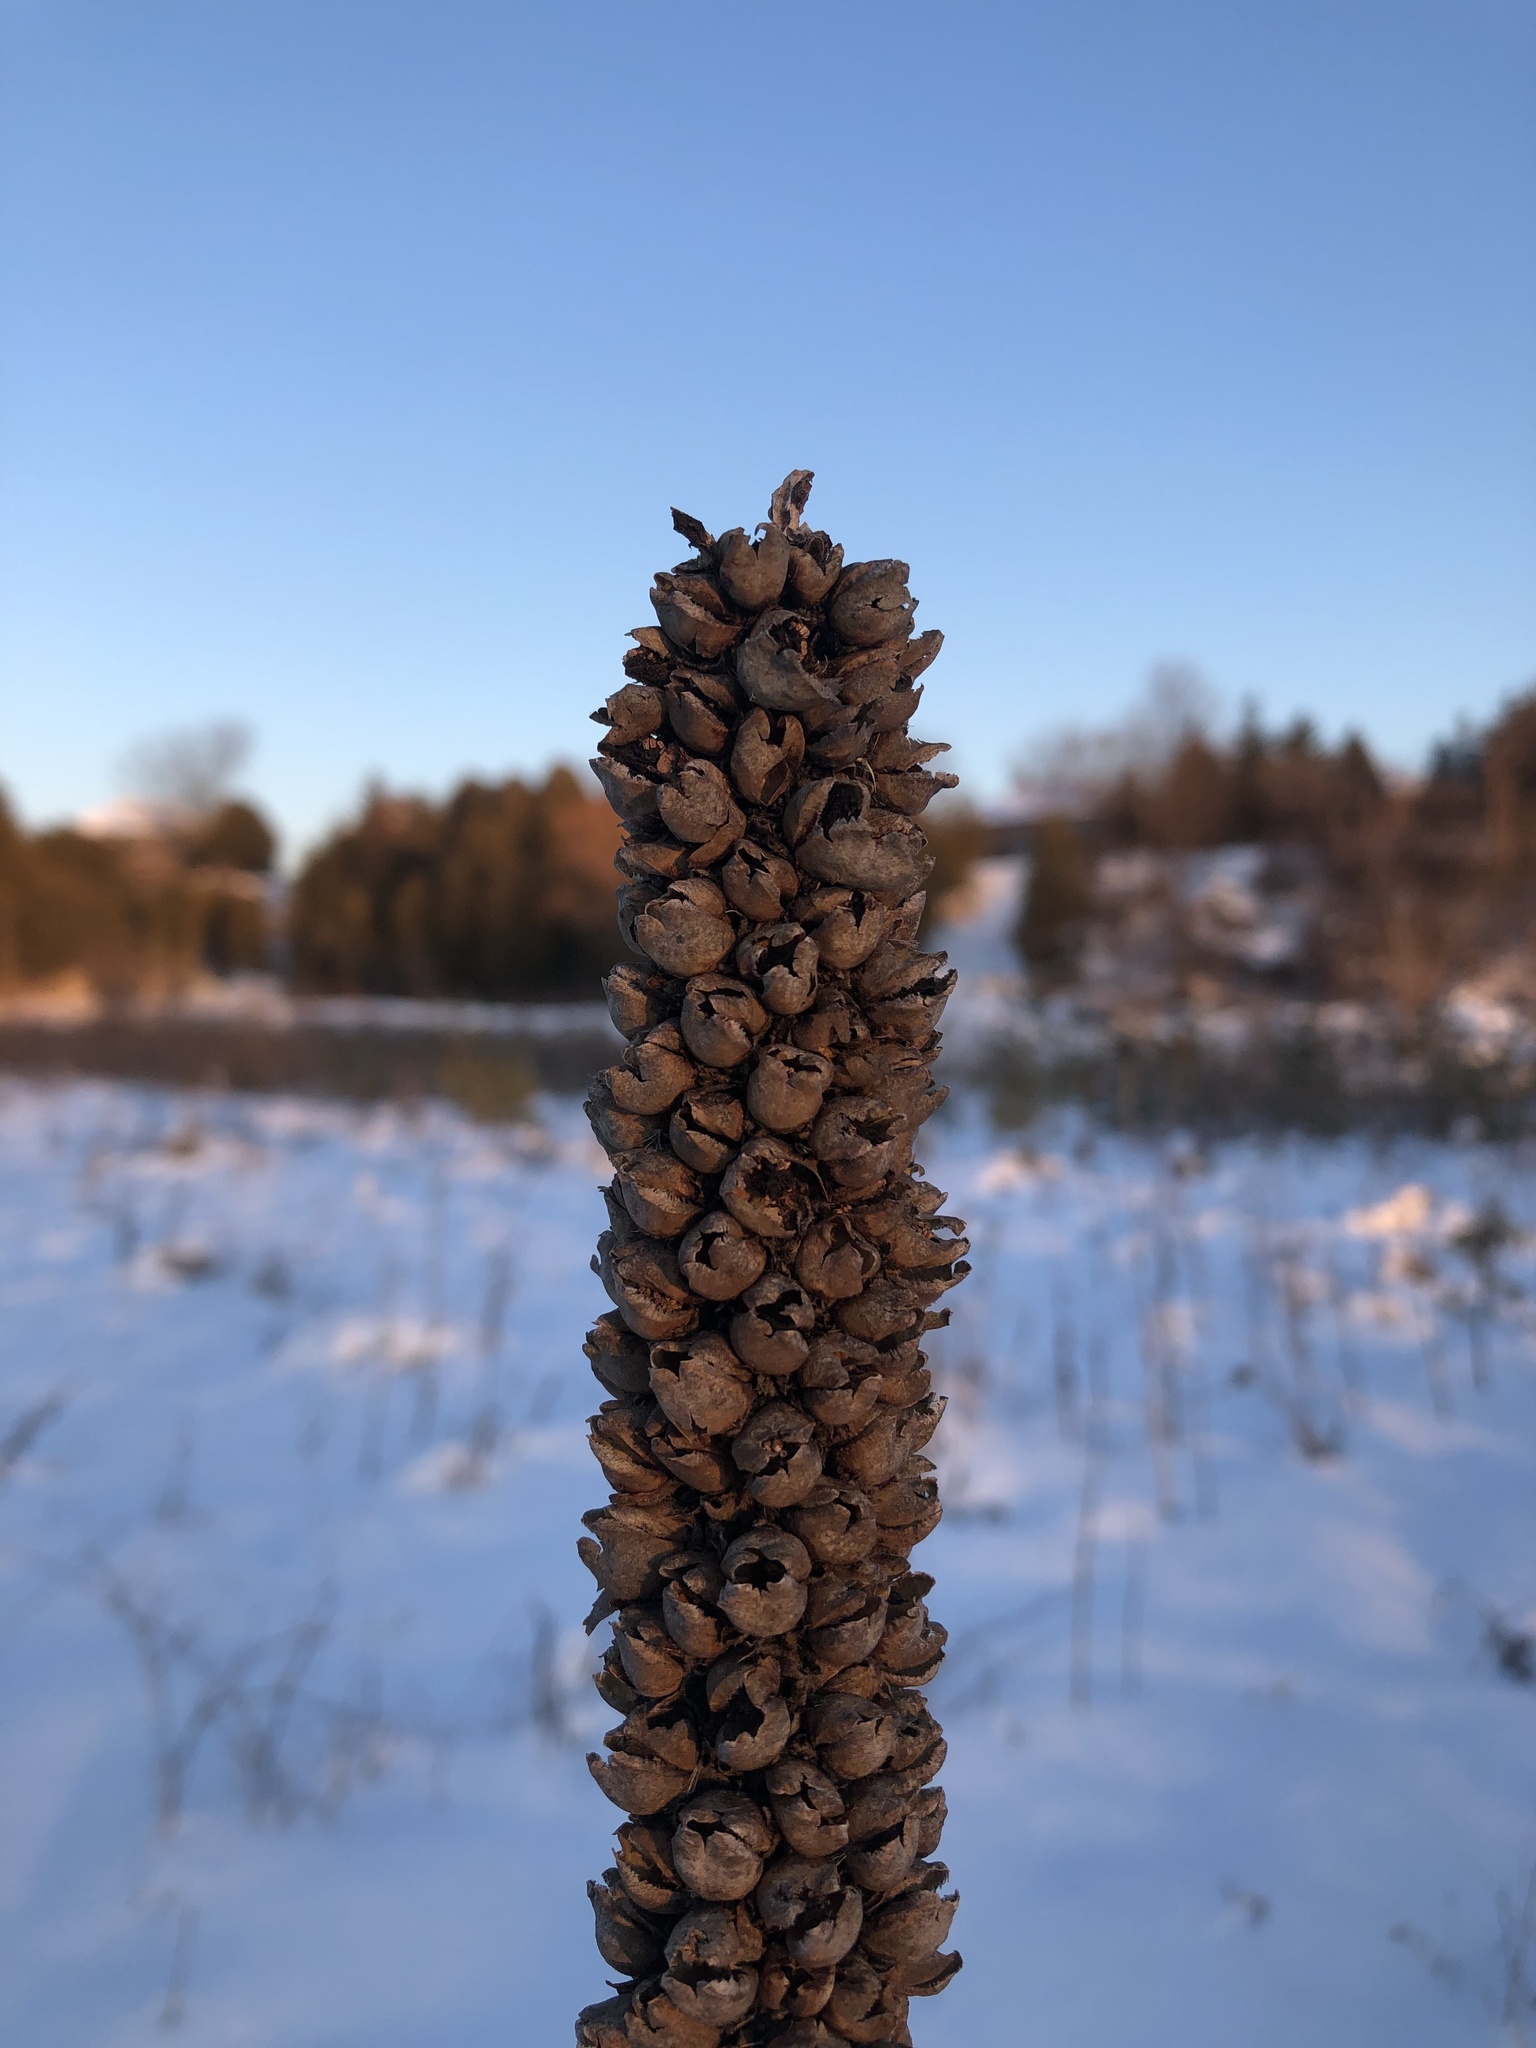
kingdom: Plantae
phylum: Tracheophyta
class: Magnoliopsida
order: Lamiales
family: Scrophulariaceae
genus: Verbascum
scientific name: Verbascum thapsus
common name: Common mullein
